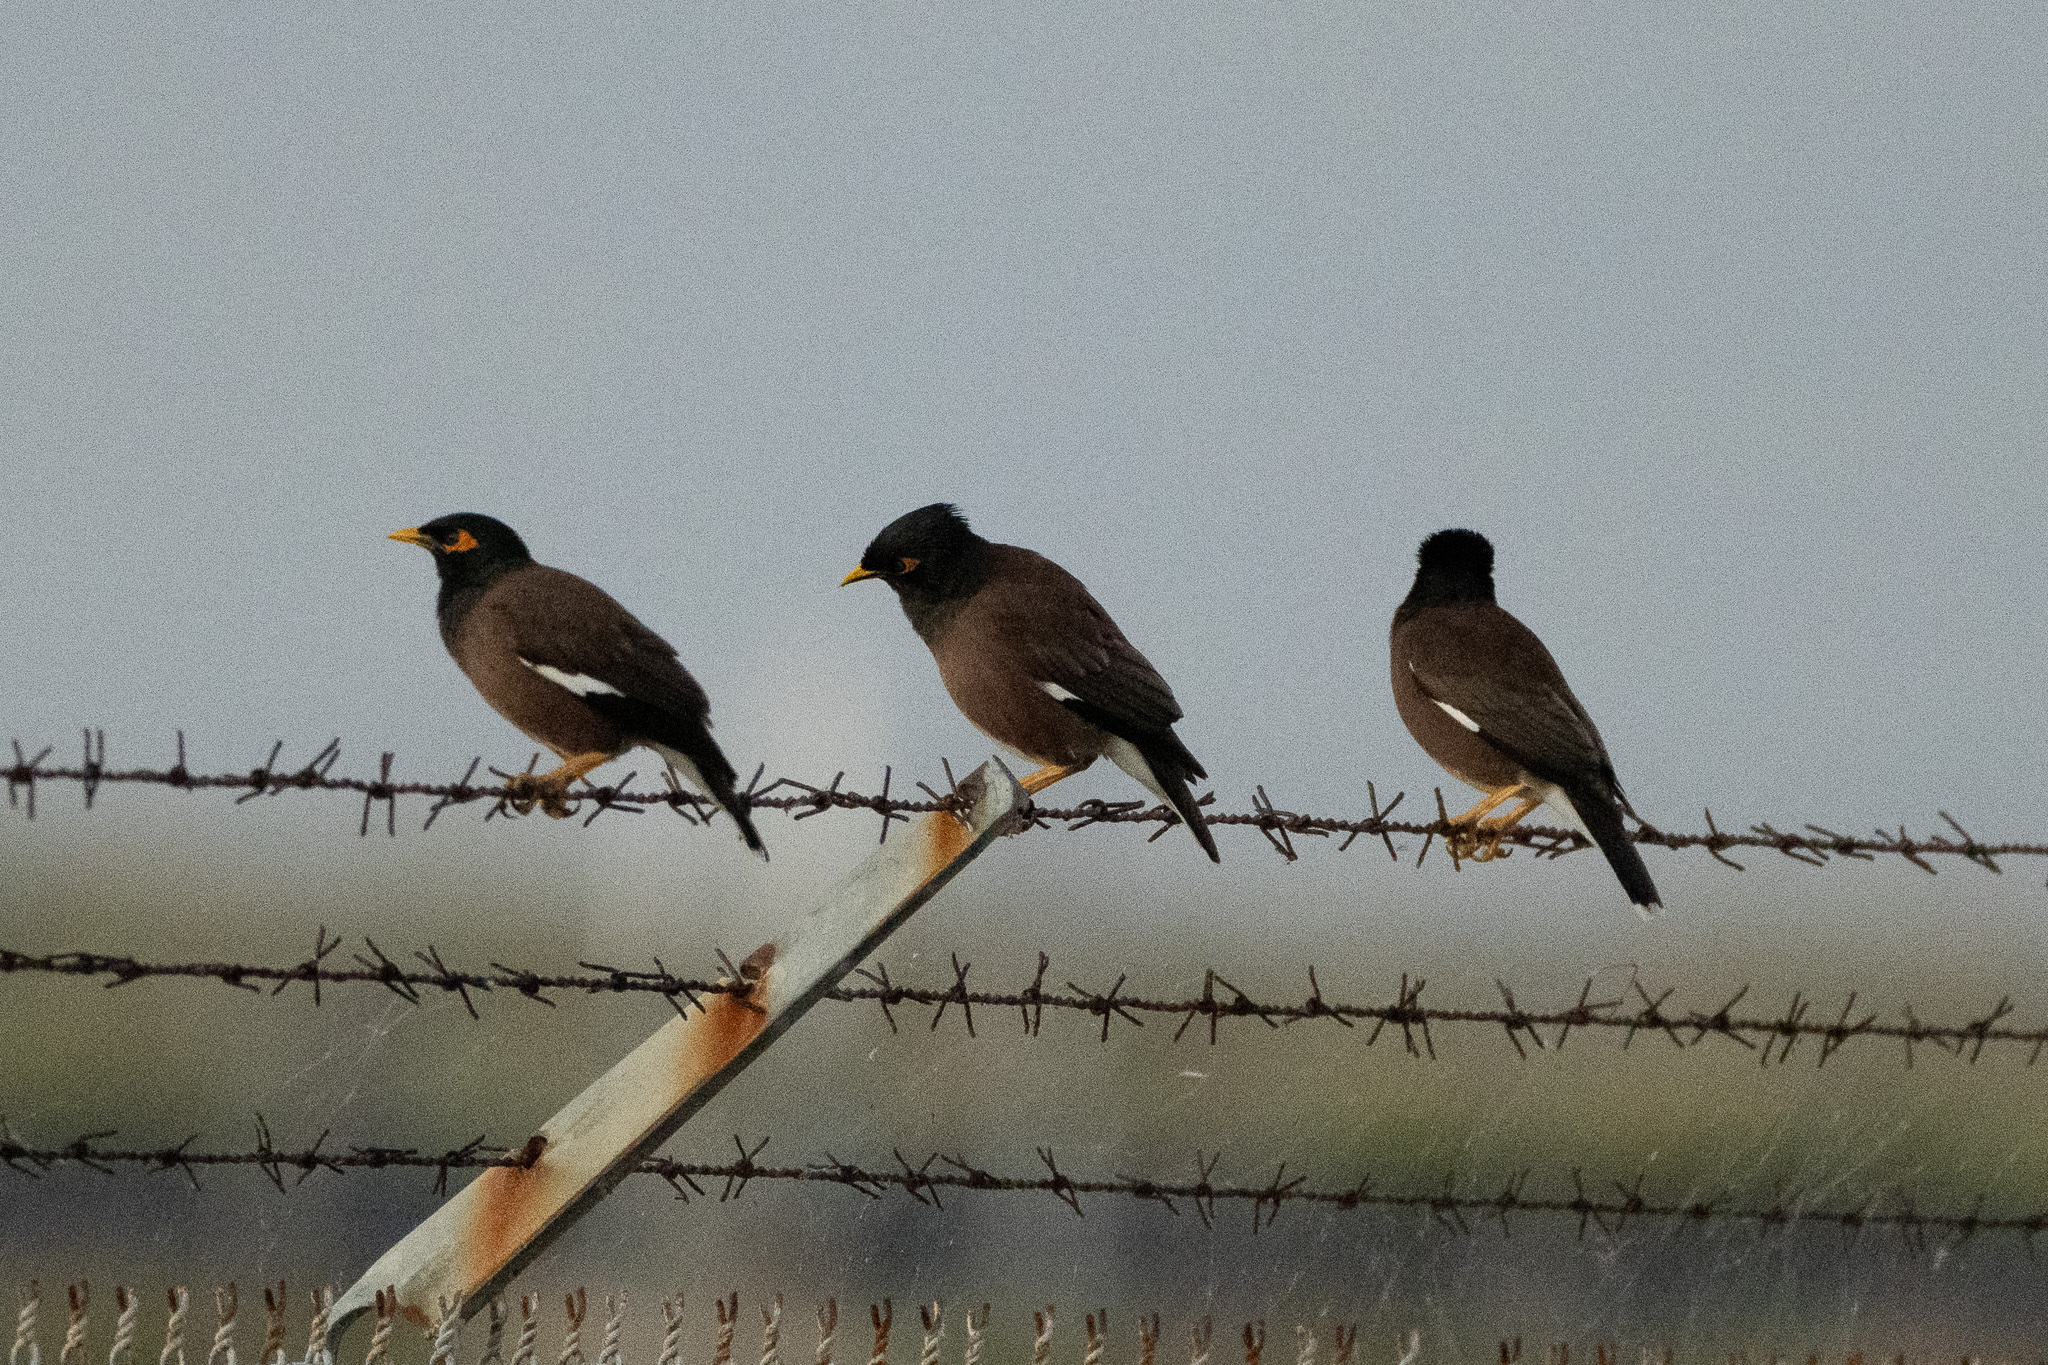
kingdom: Animalia
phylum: Chordata
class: Aves
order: Passeriformes
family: Sturnidae
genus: Acridotheres
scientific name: Acridotheres tristis
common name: Common myna
